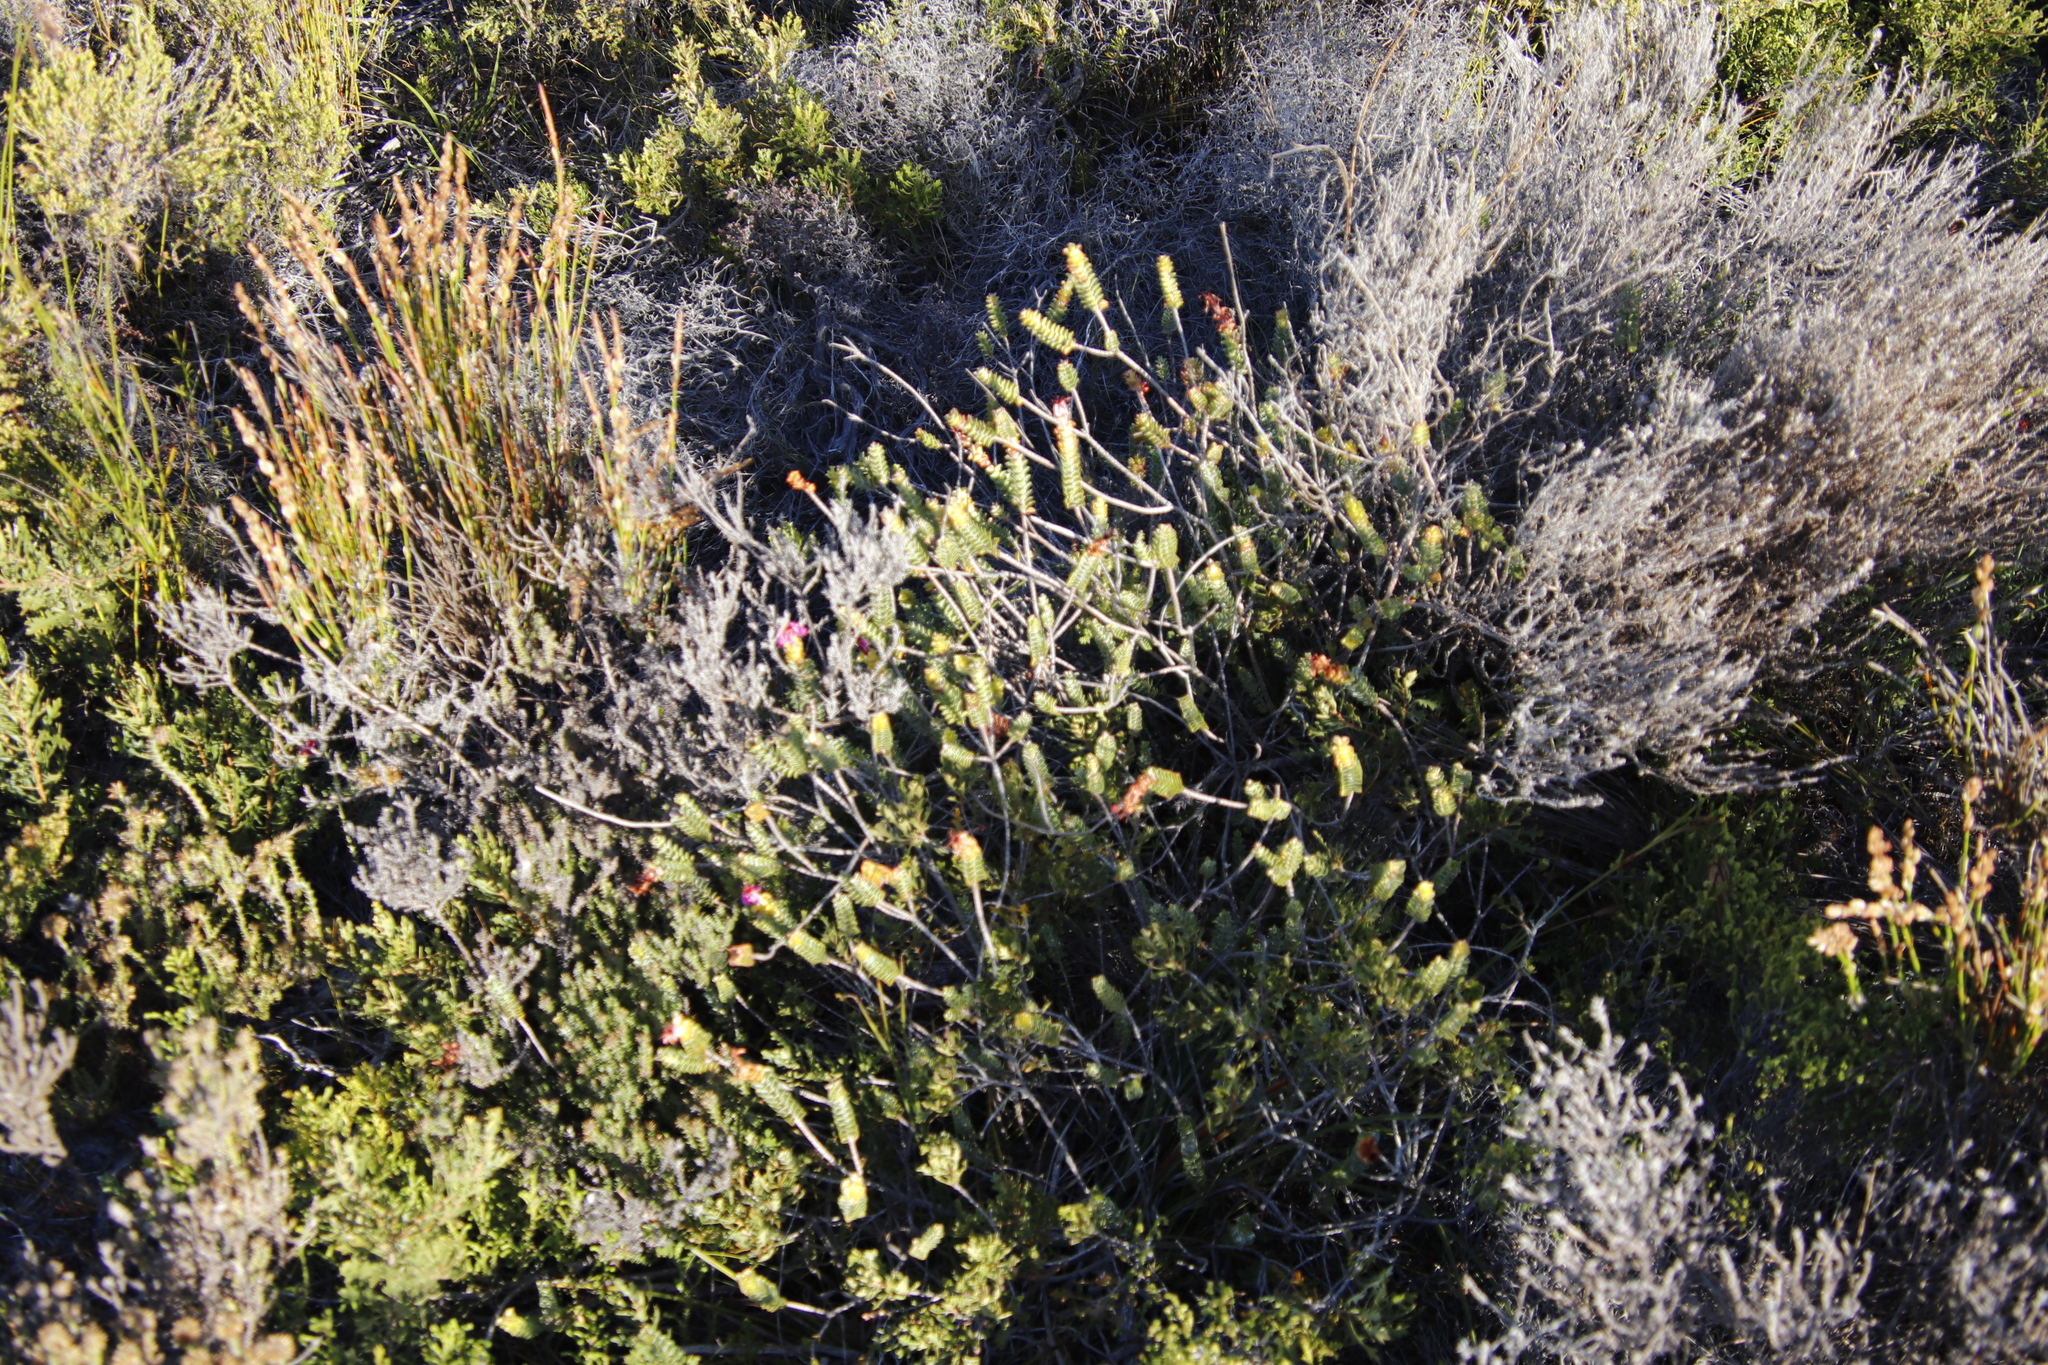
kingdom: Plantae
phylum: Tracheophyta
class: Magnoliopsida
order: Myrtales
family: Penaeaceae
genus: Saltera
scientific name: Saltera sarcocolla
